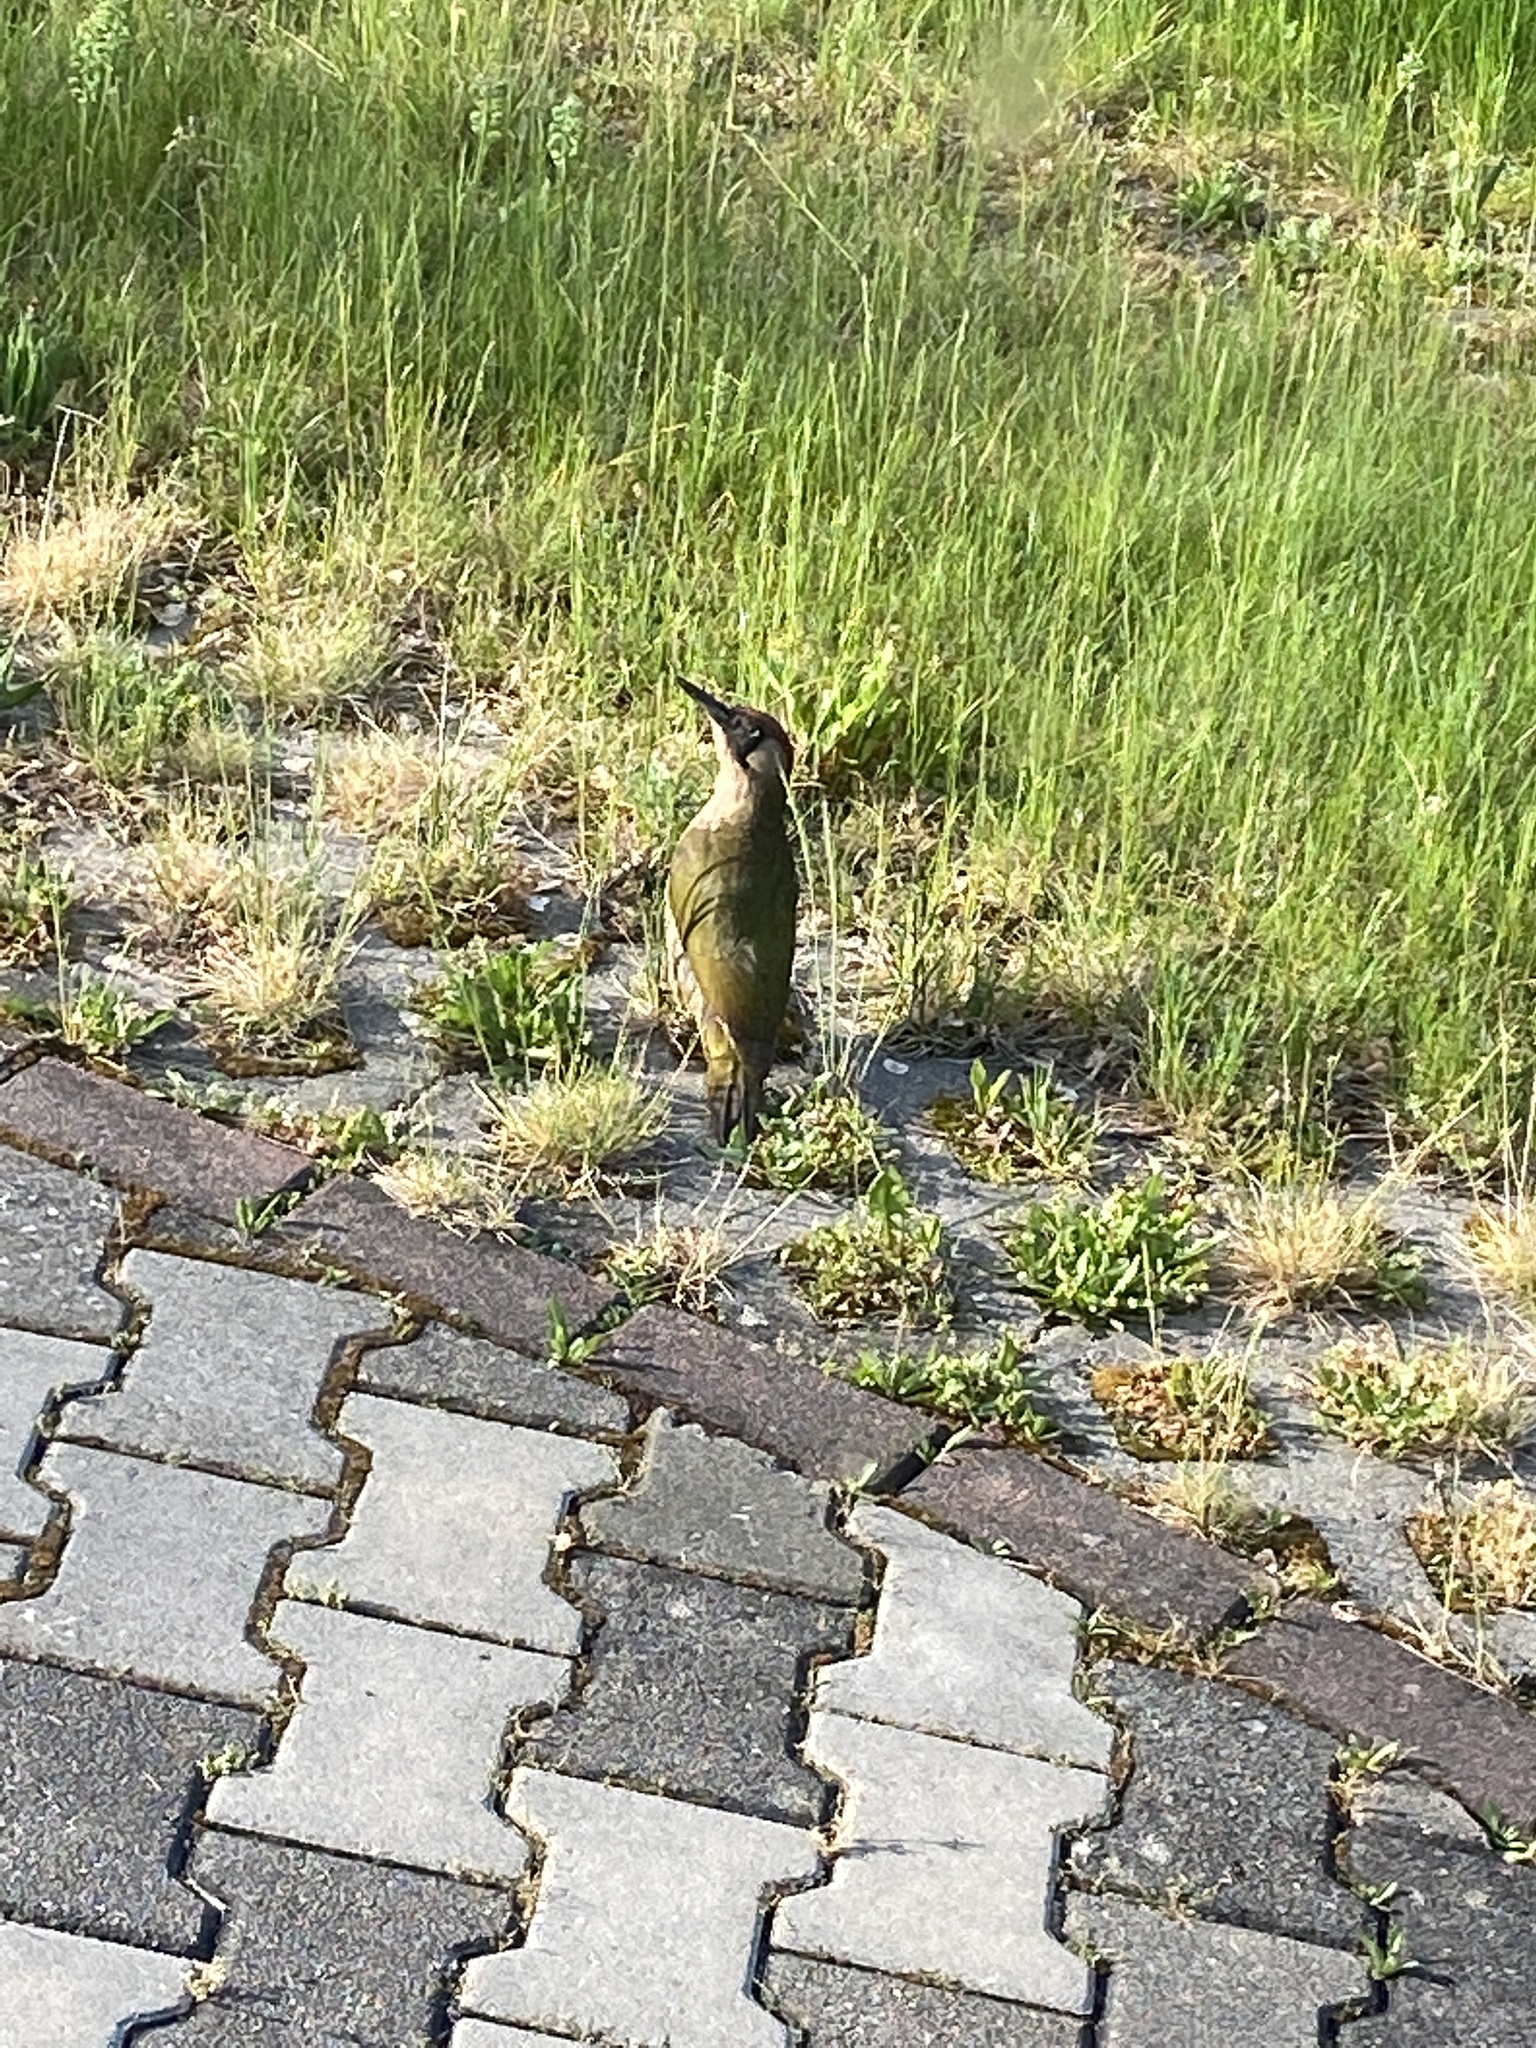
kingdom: Animalia
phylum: Chordata
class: Aves
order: Piciformes
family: Picidae
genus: Picus
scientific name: Picus viridis
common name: European green woodpecker
